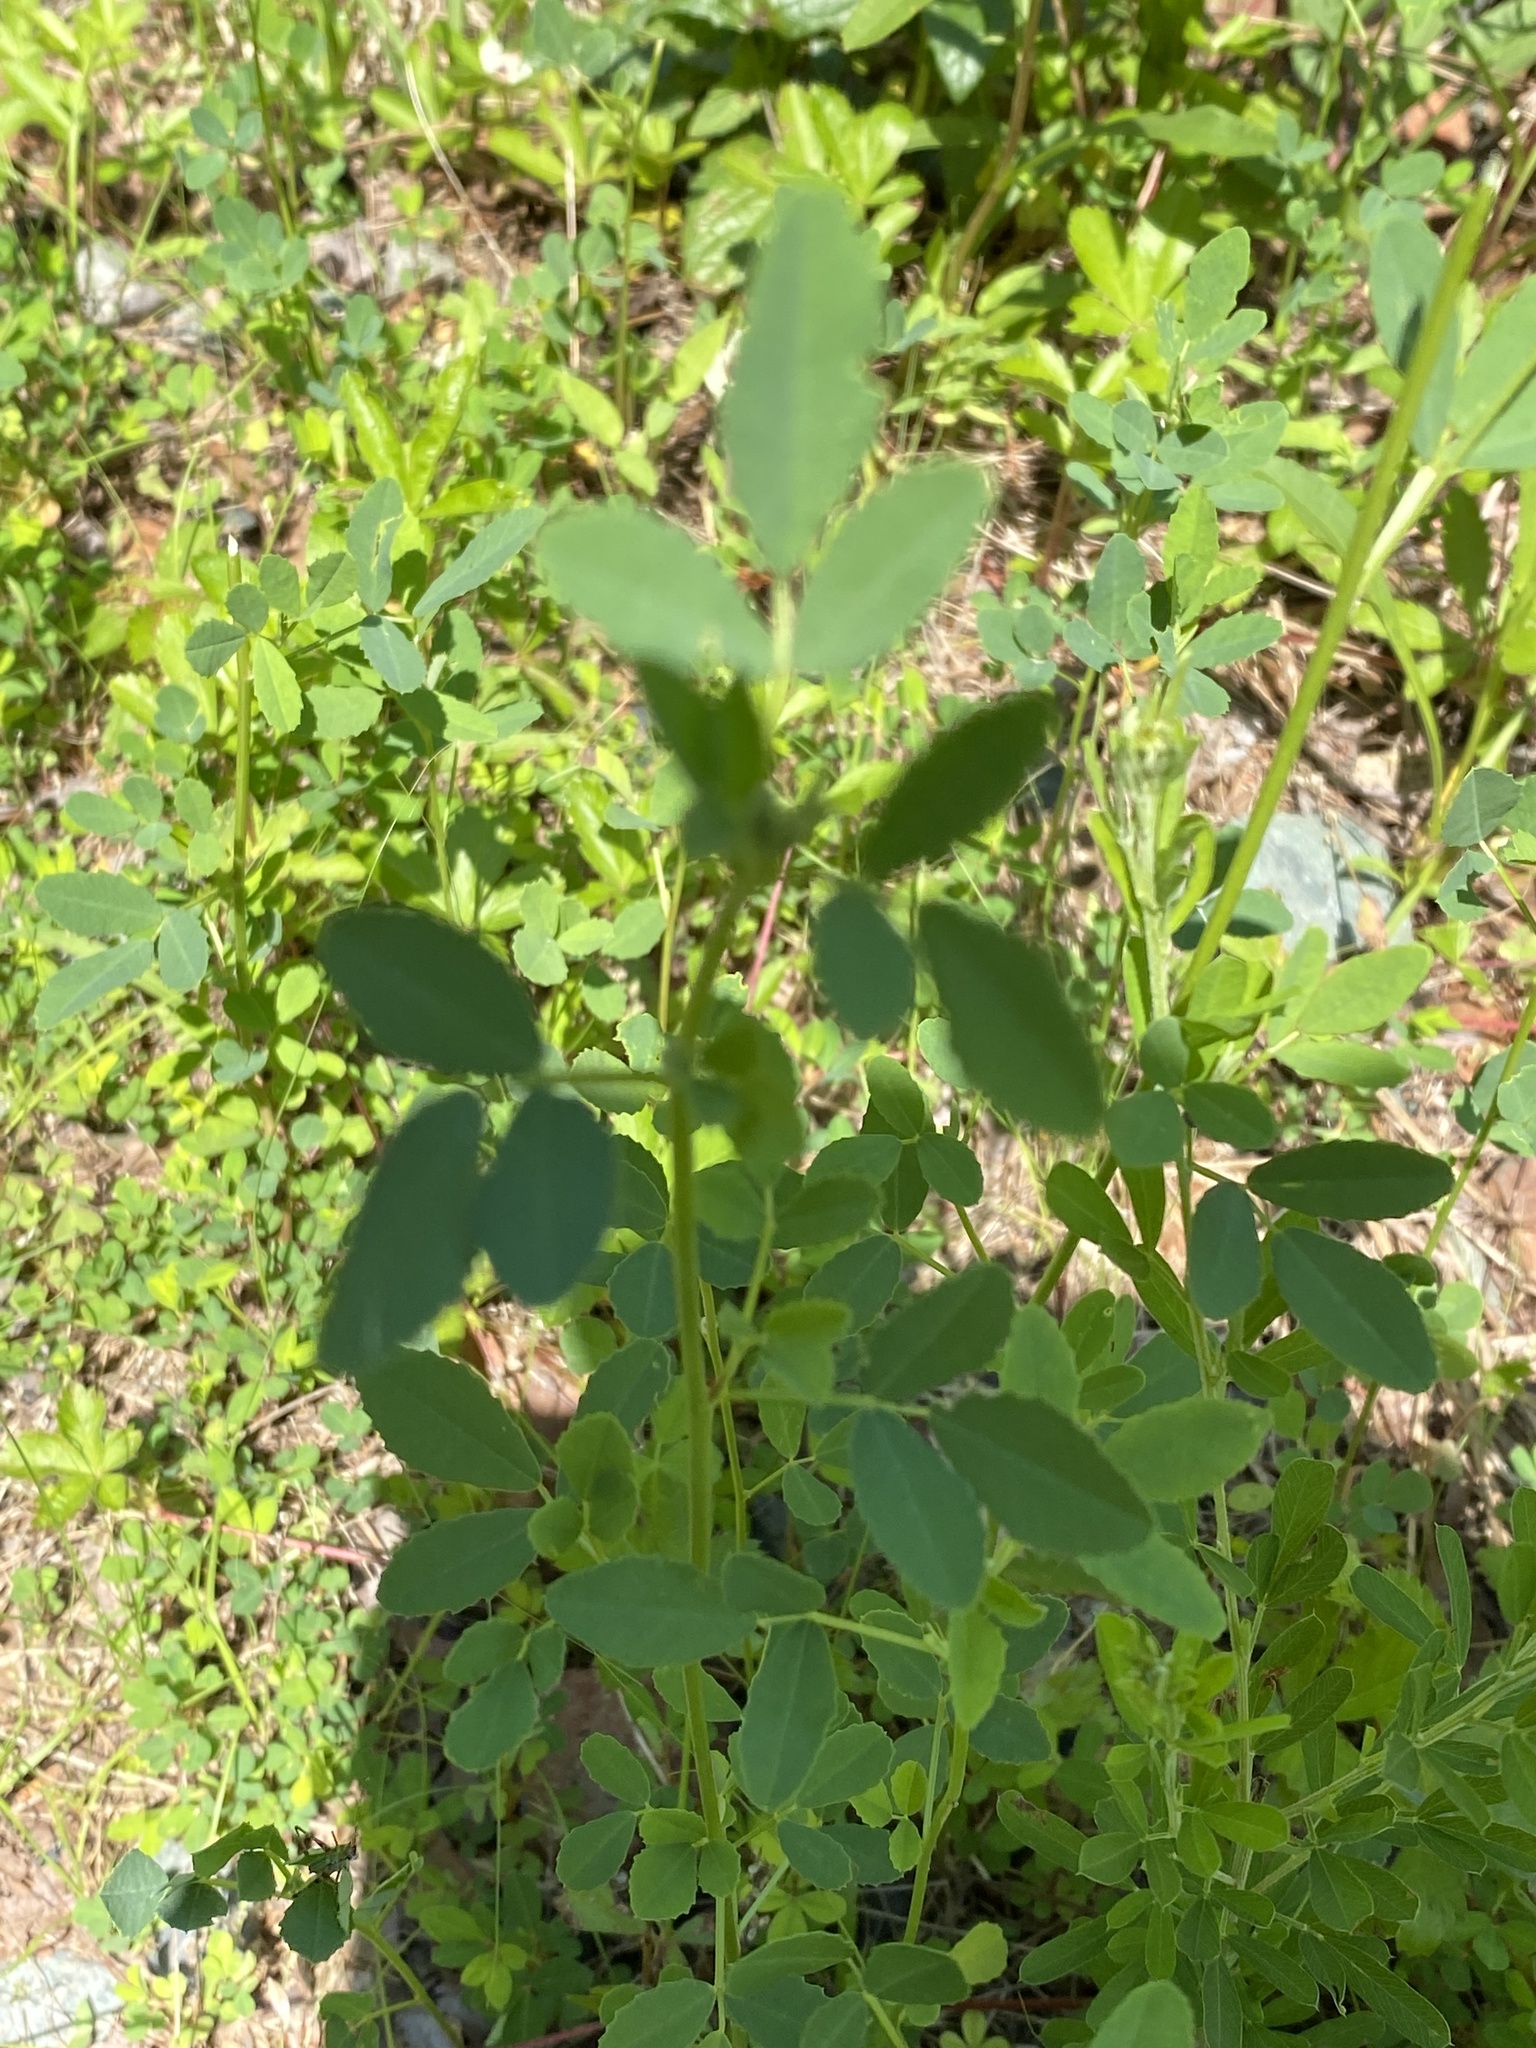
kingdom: Plantae
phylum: Tracheophyta
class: Magnoliopsida
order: Fabales
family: Fabaceae
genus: Melilotus
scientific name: Melilotus albus
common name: White melilot
